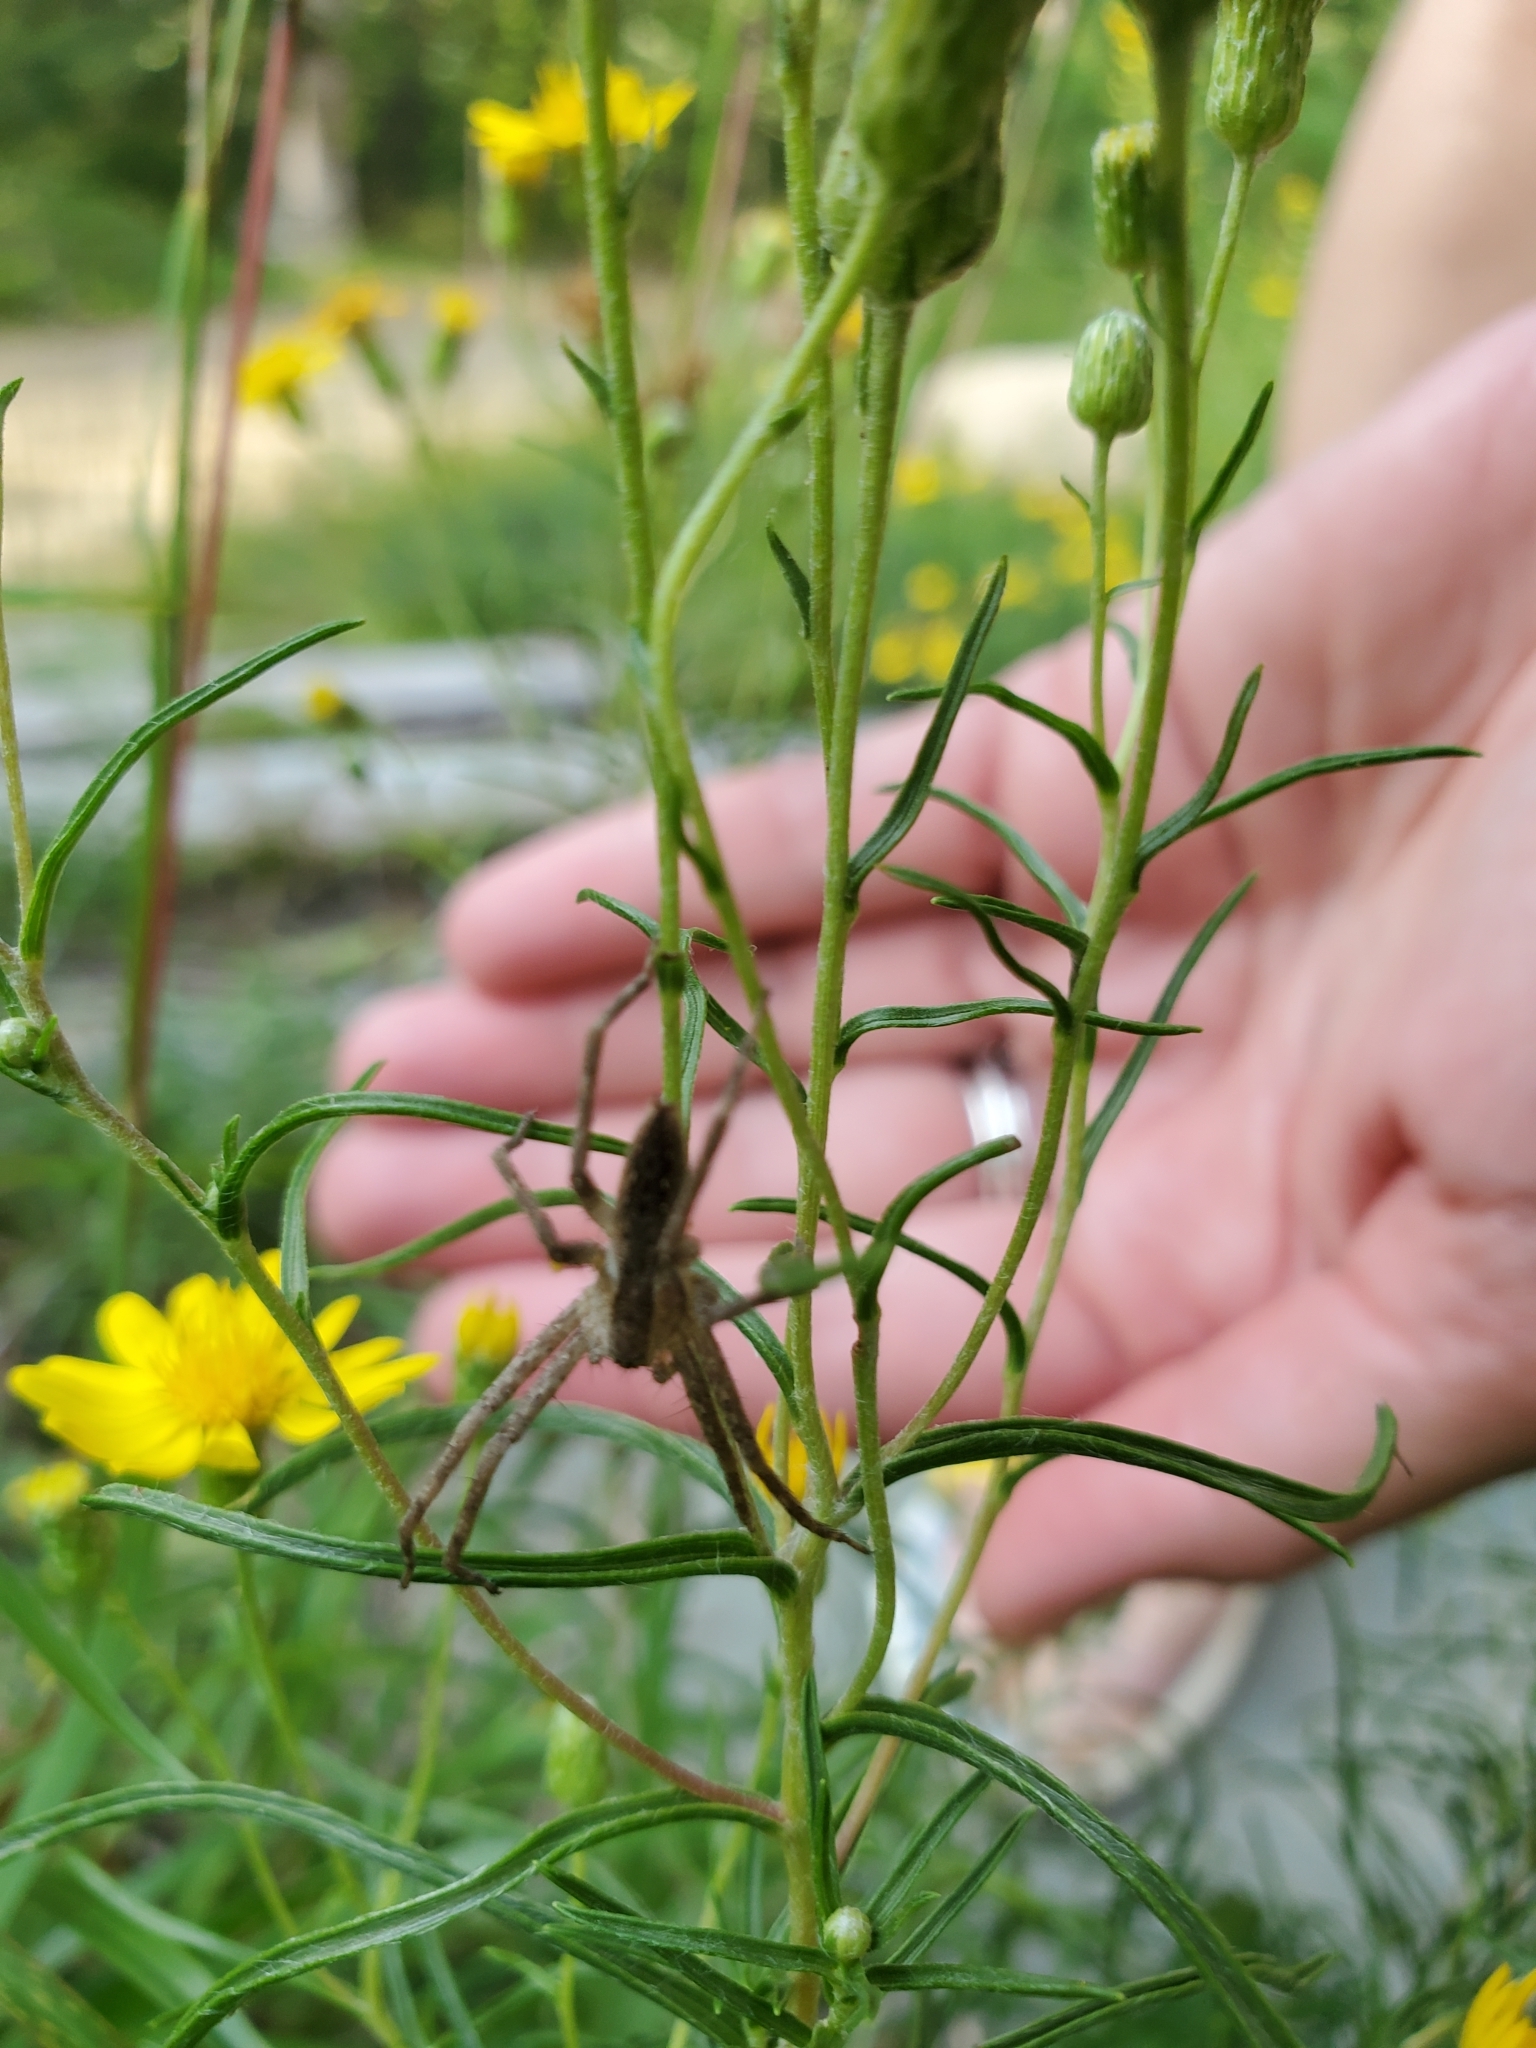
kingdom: Animalia
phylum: Arthropoda
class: Arachnida
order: Araneae
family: Pisauridae
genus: Pisaurina
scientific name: Pisaurina mira
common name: American nursery web spider
